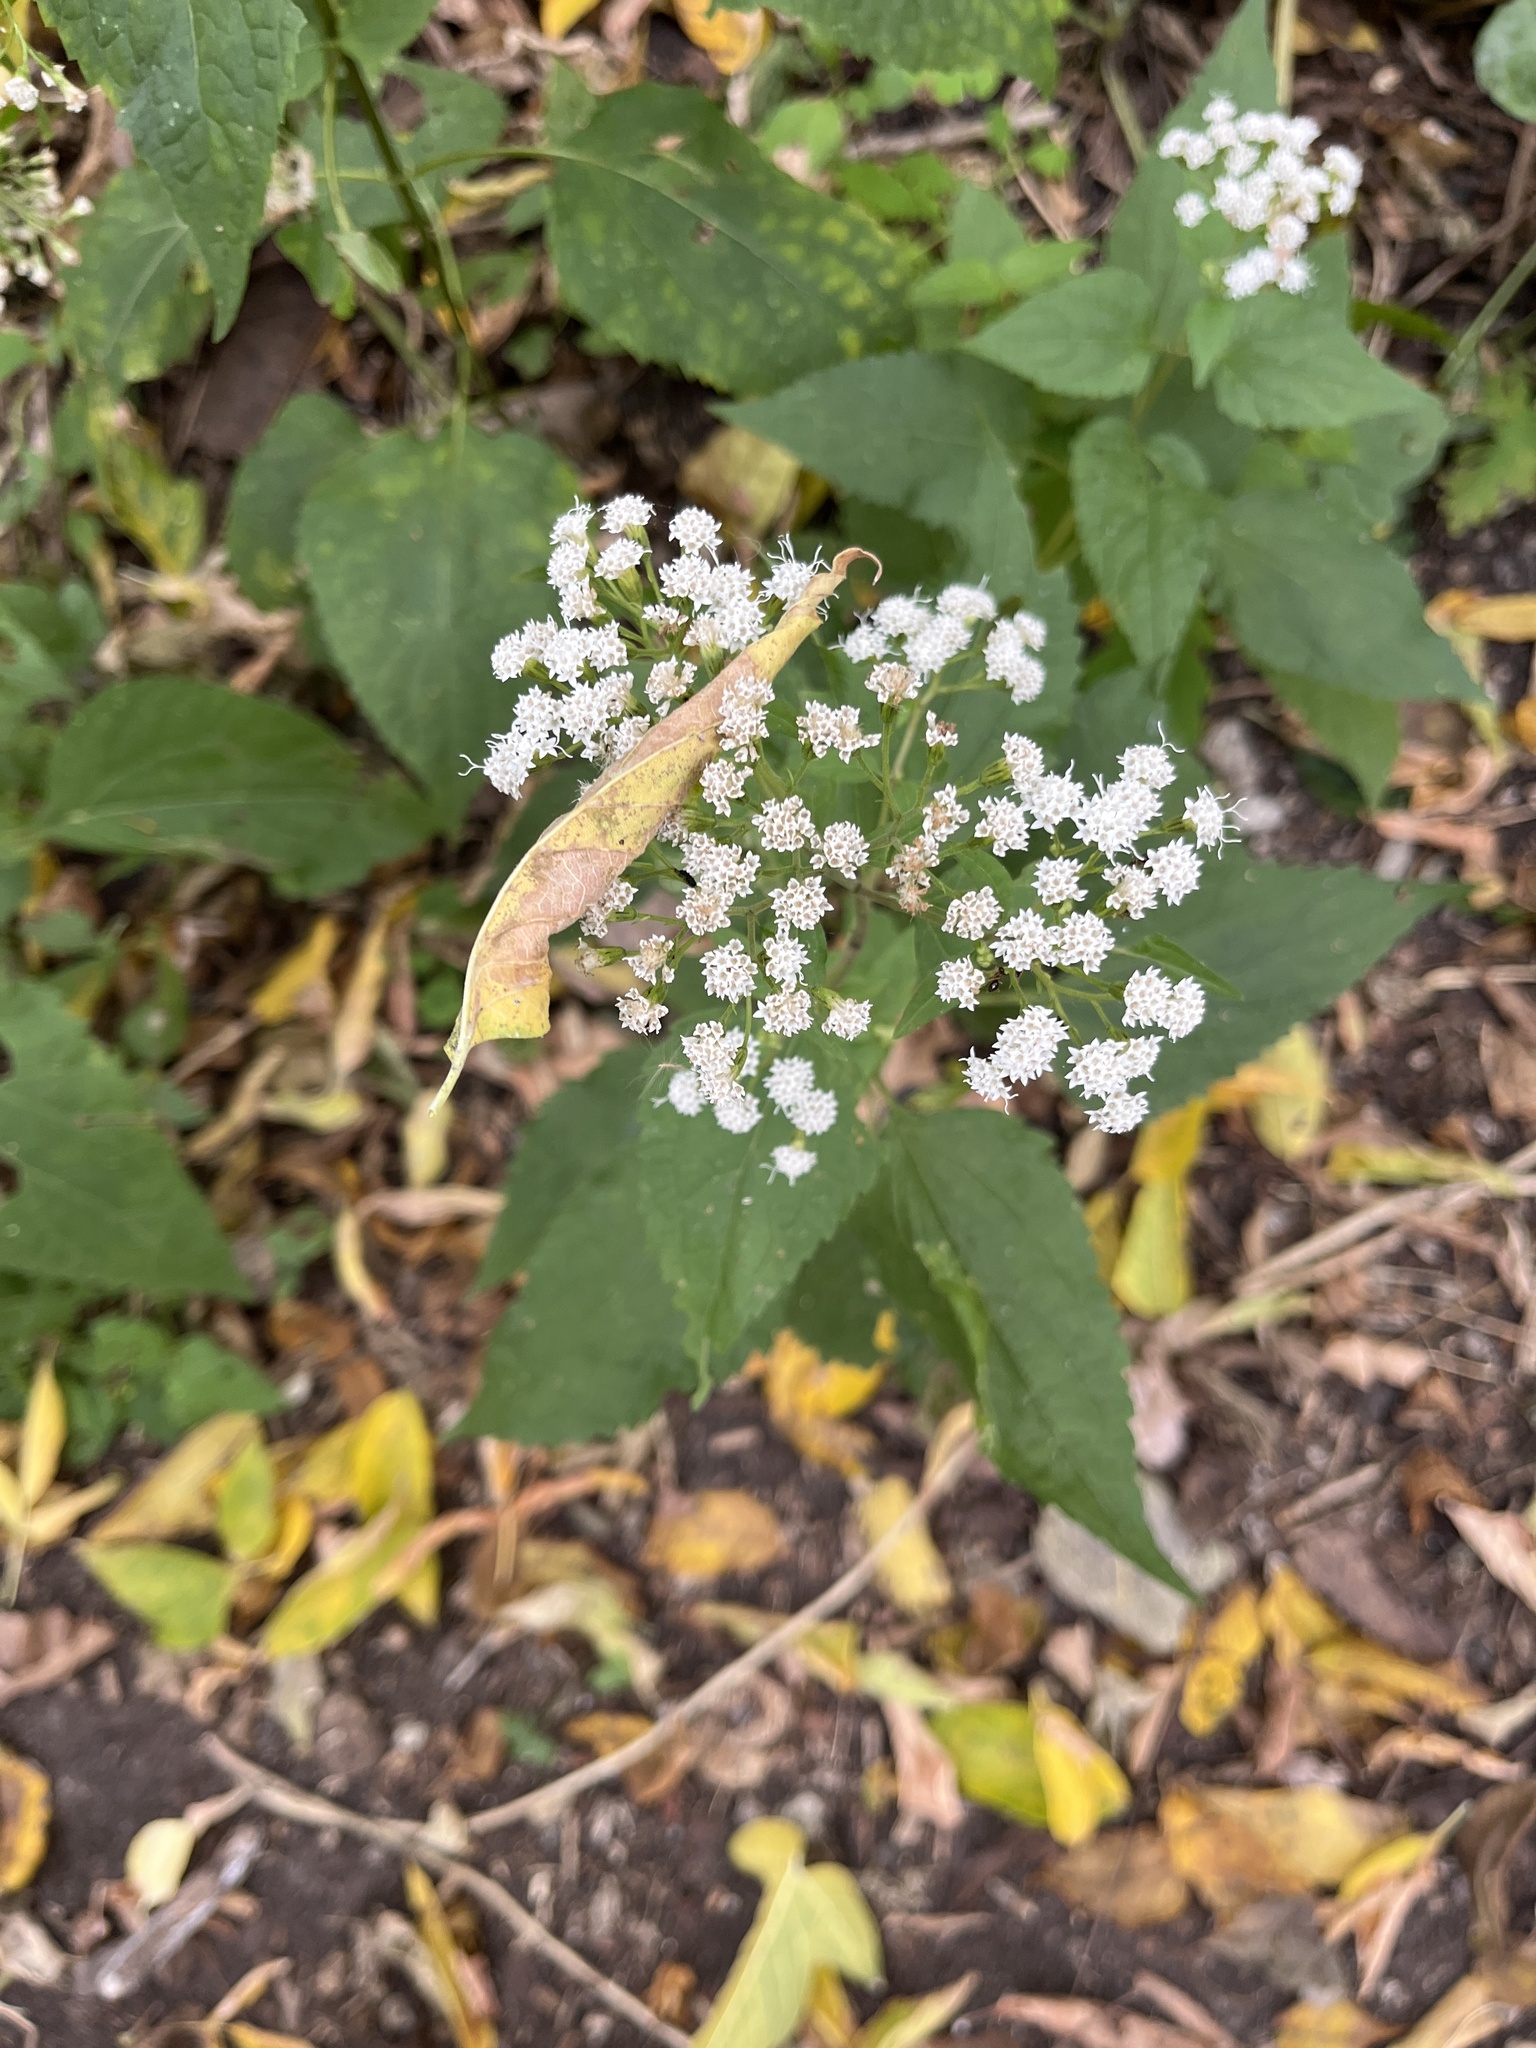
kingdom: Plantae
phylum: Tracheophyta
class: Magnoliopsida
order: Asterales
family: Asteraceae
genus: Ageratina
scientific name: Ageratina altissima
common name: White snakeroot
